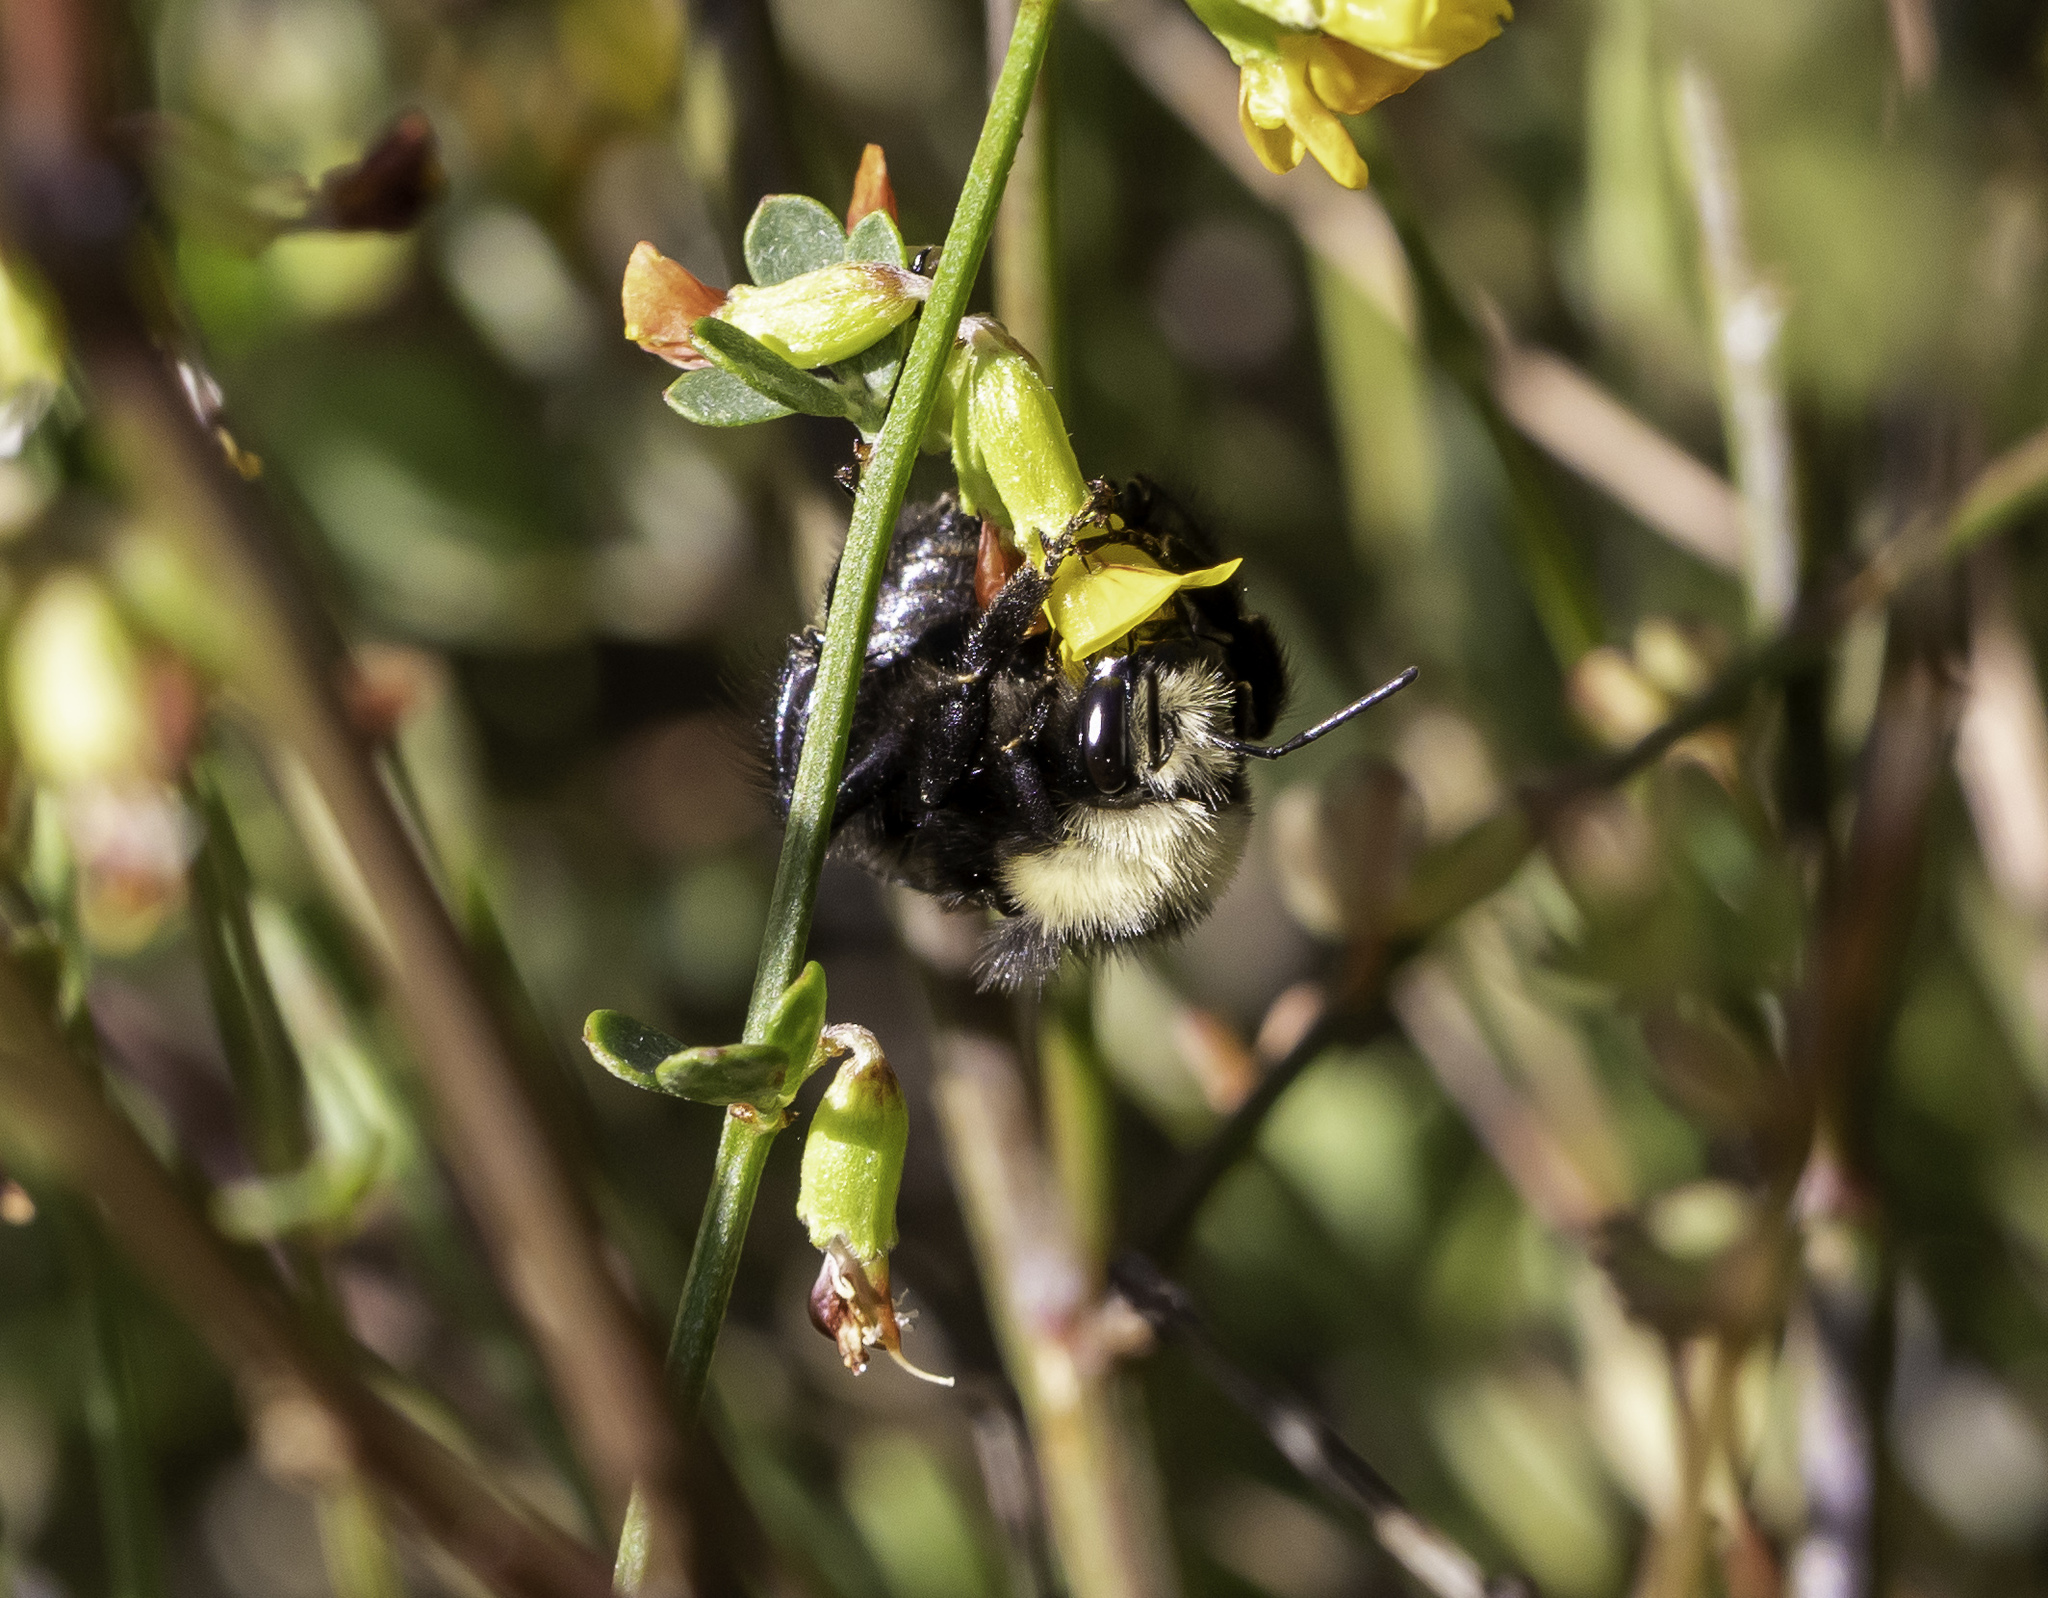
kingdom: Animalia
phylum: Arthropoda
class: Insecta
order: Hymenoptera
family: Apidae
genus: Bombus
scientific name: Bombus vosnesenskii
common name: Vosnesensky bumble bee
